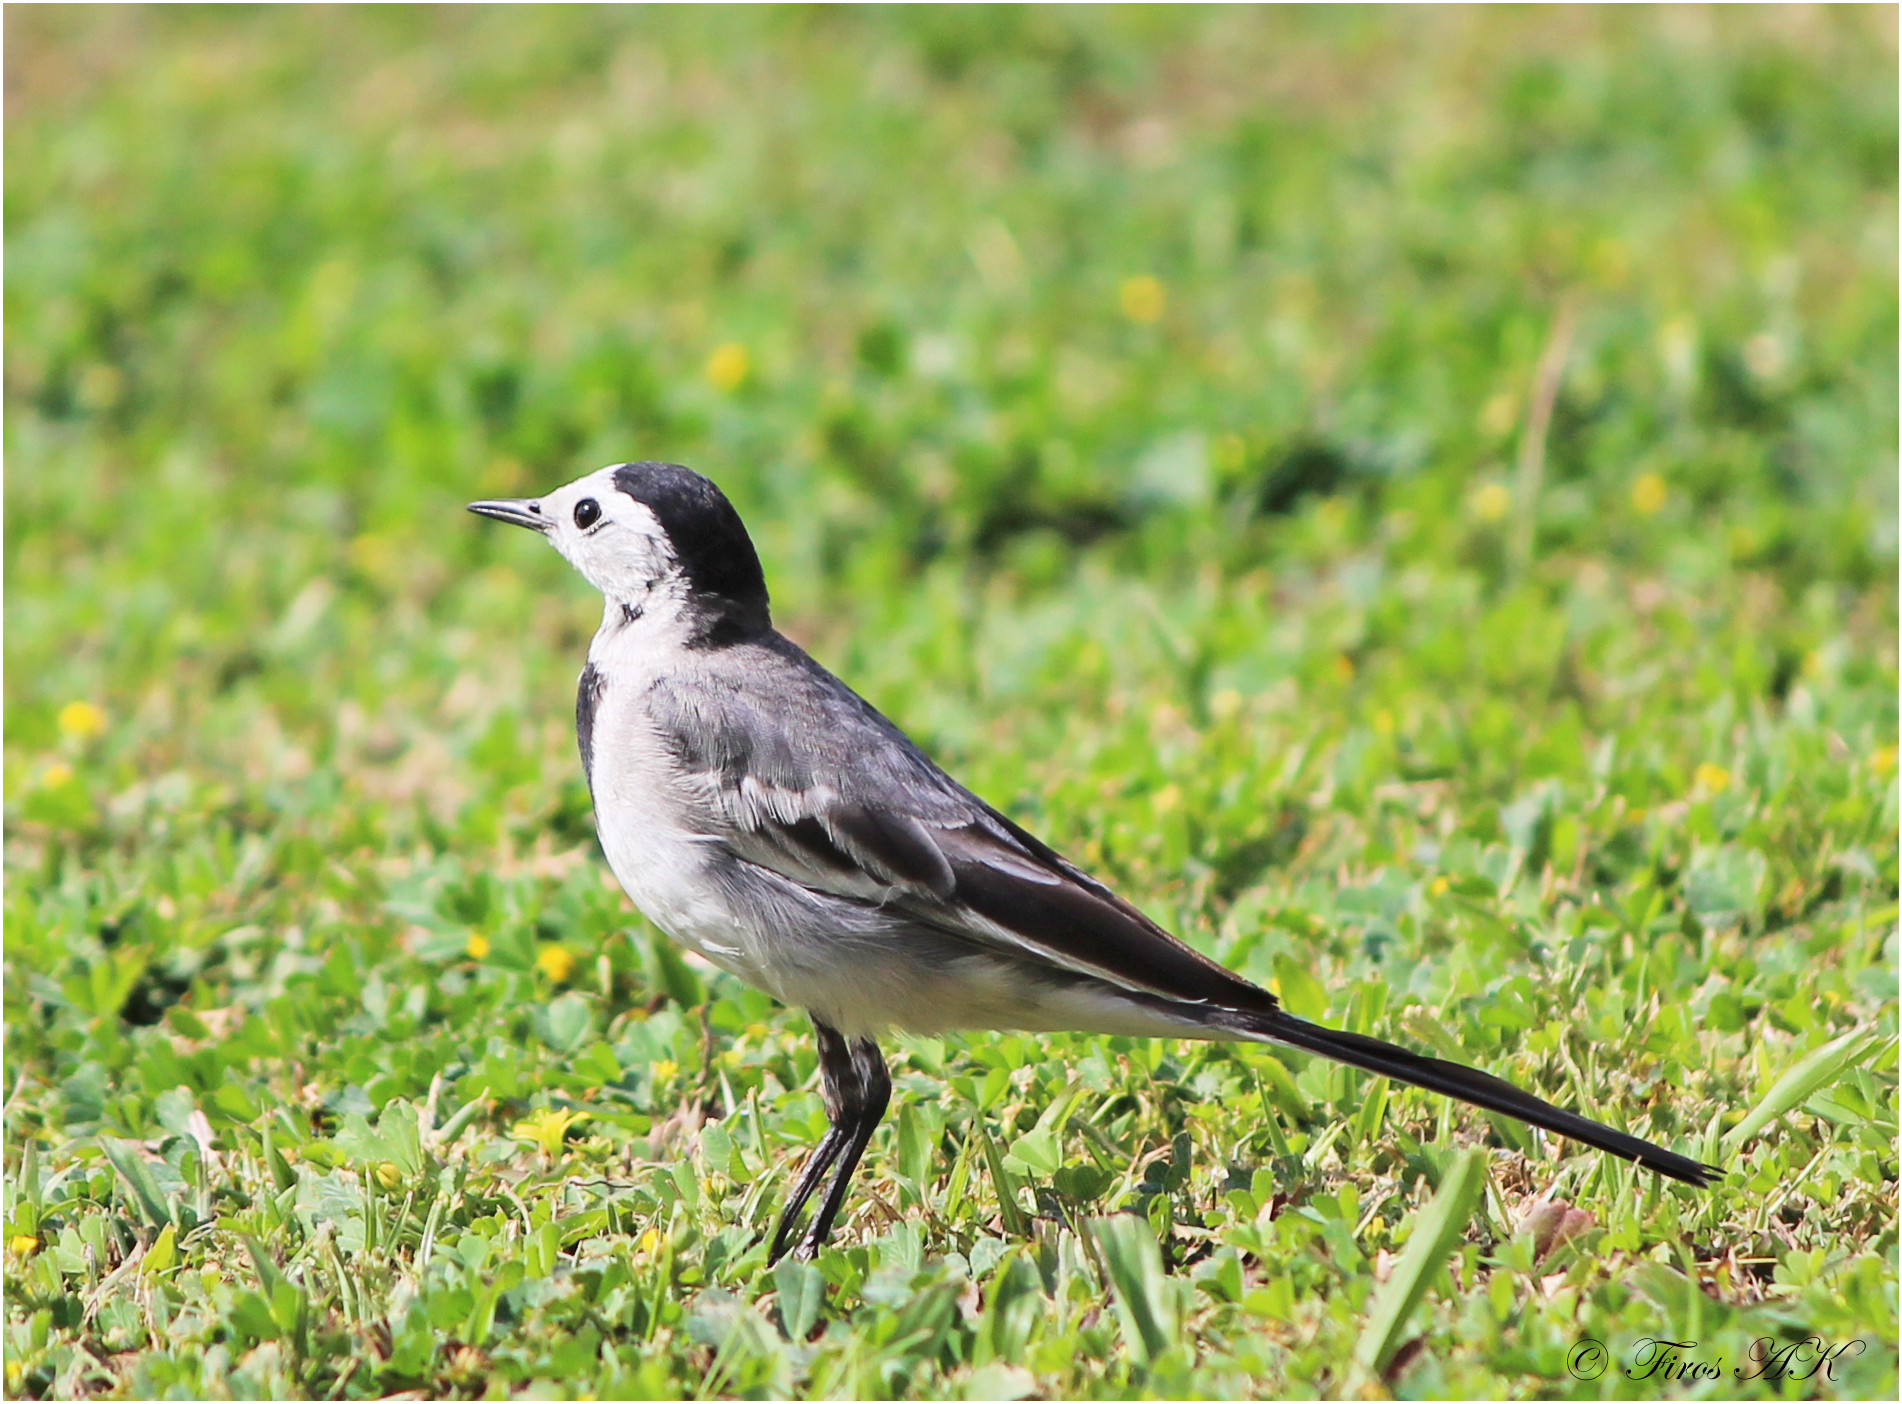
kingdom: Animalia
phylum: Chordata
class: Aves
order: Passeriformes
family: Motacillidae
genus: Motacilla
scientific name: Motacilla alba
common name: White wagtail
